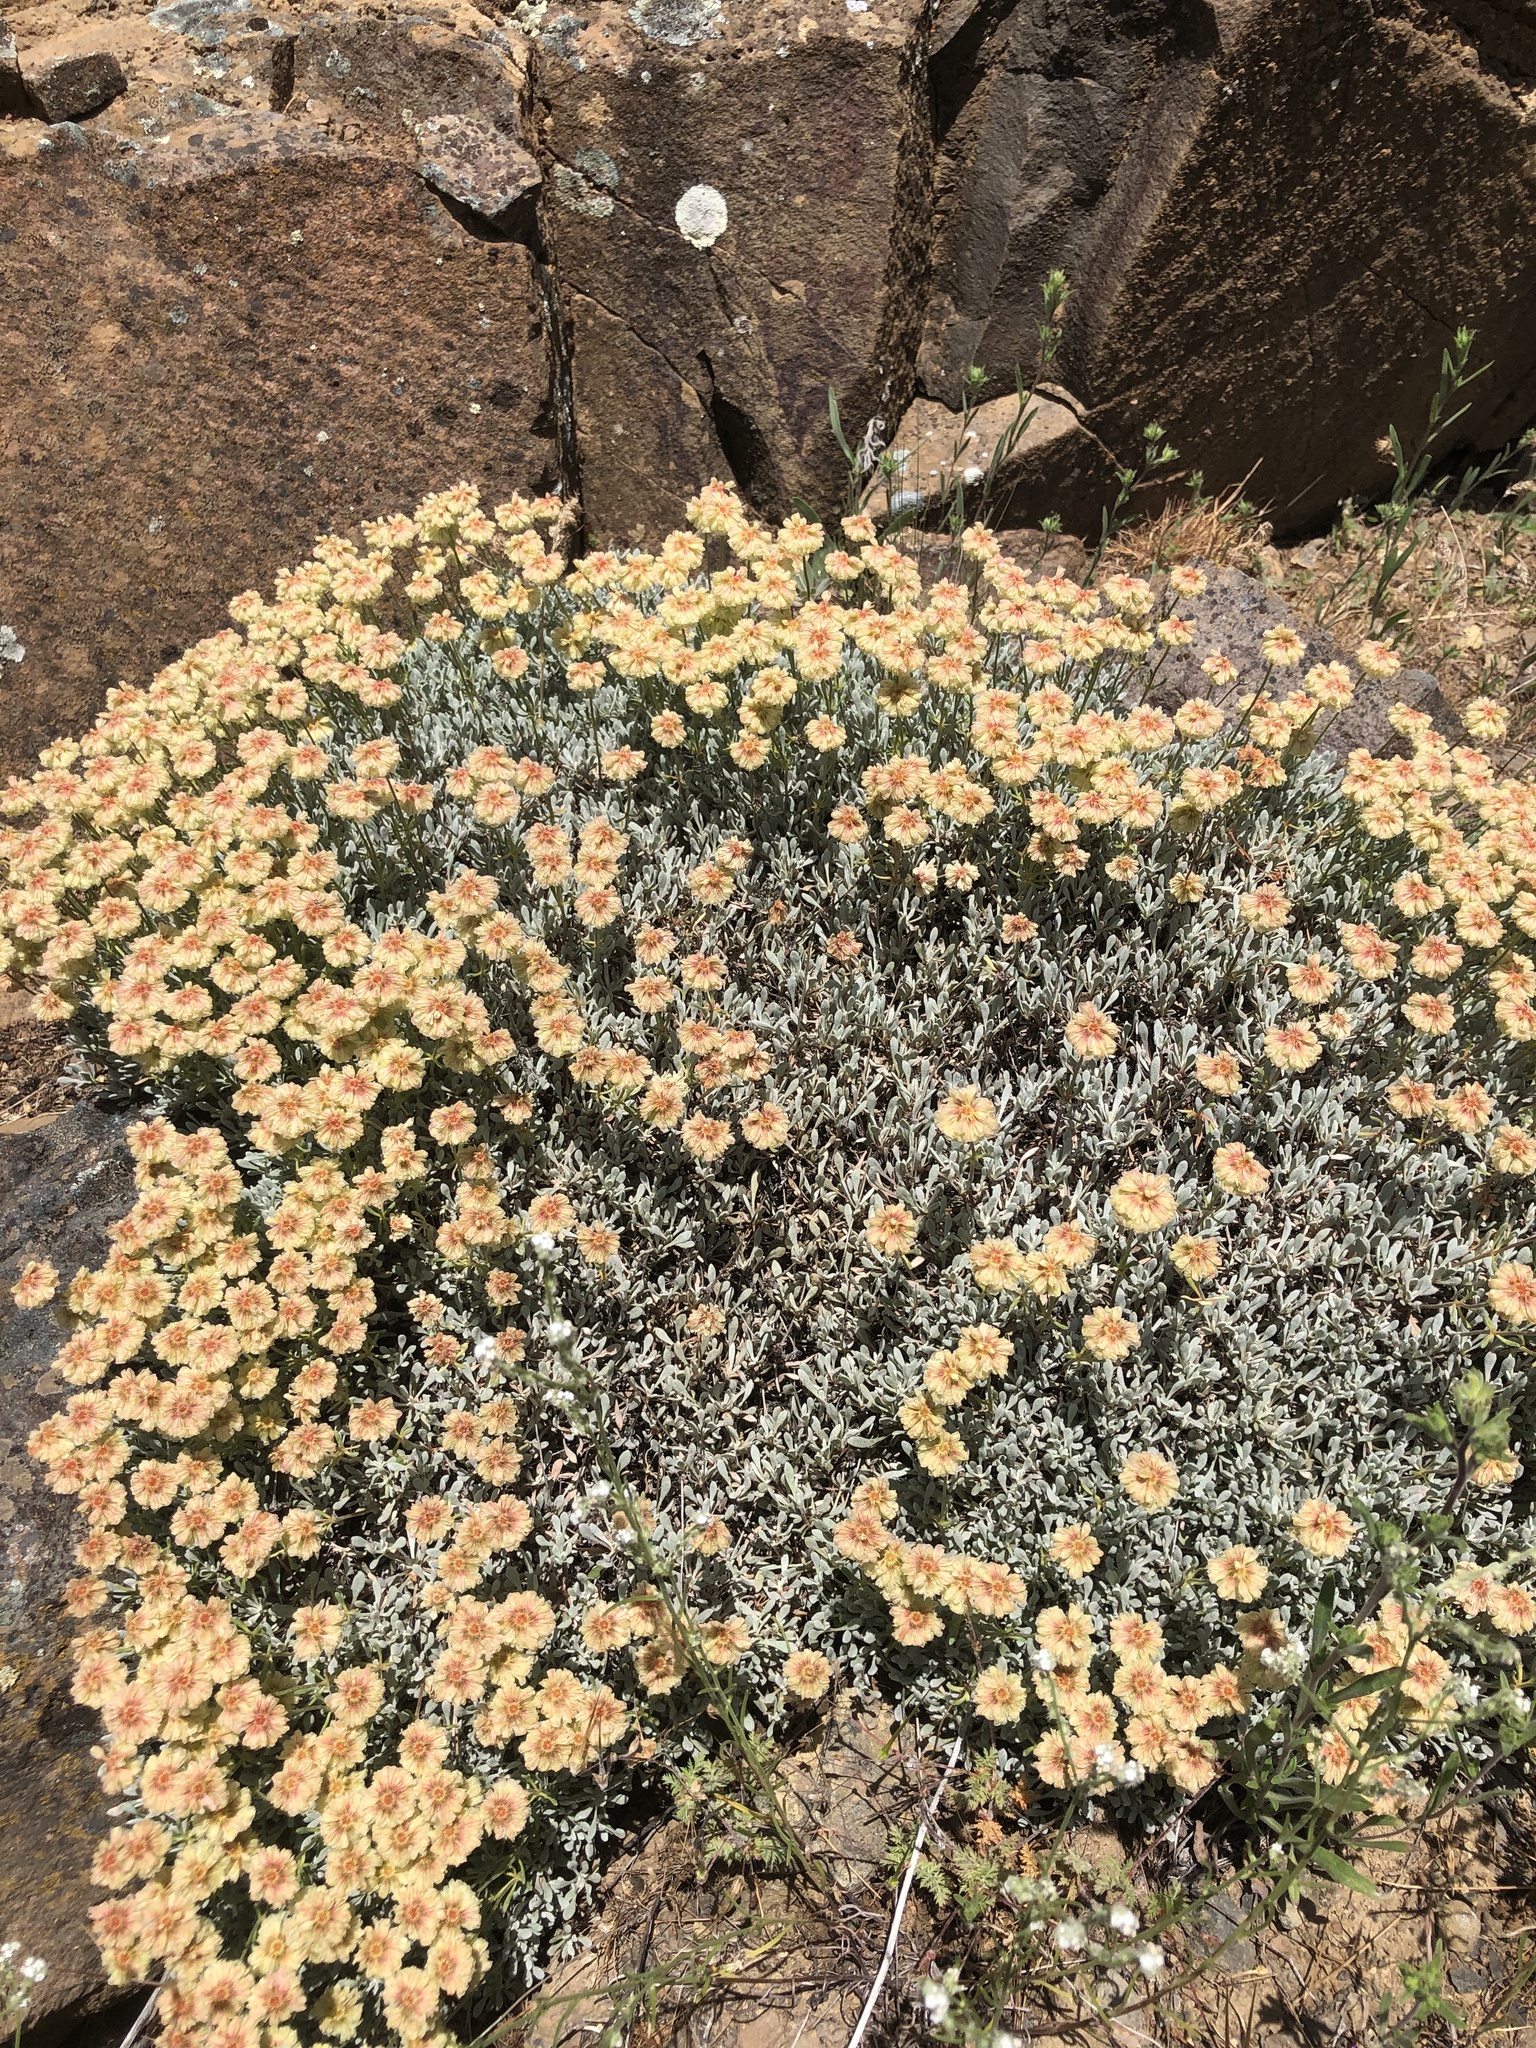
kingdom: Plantae
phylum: Tracheophyta
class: Magnoliopsida
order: Caryophyllales
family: Polygonaceae
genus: Eriogonum
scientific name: Eriogonum sphaerocephalum
